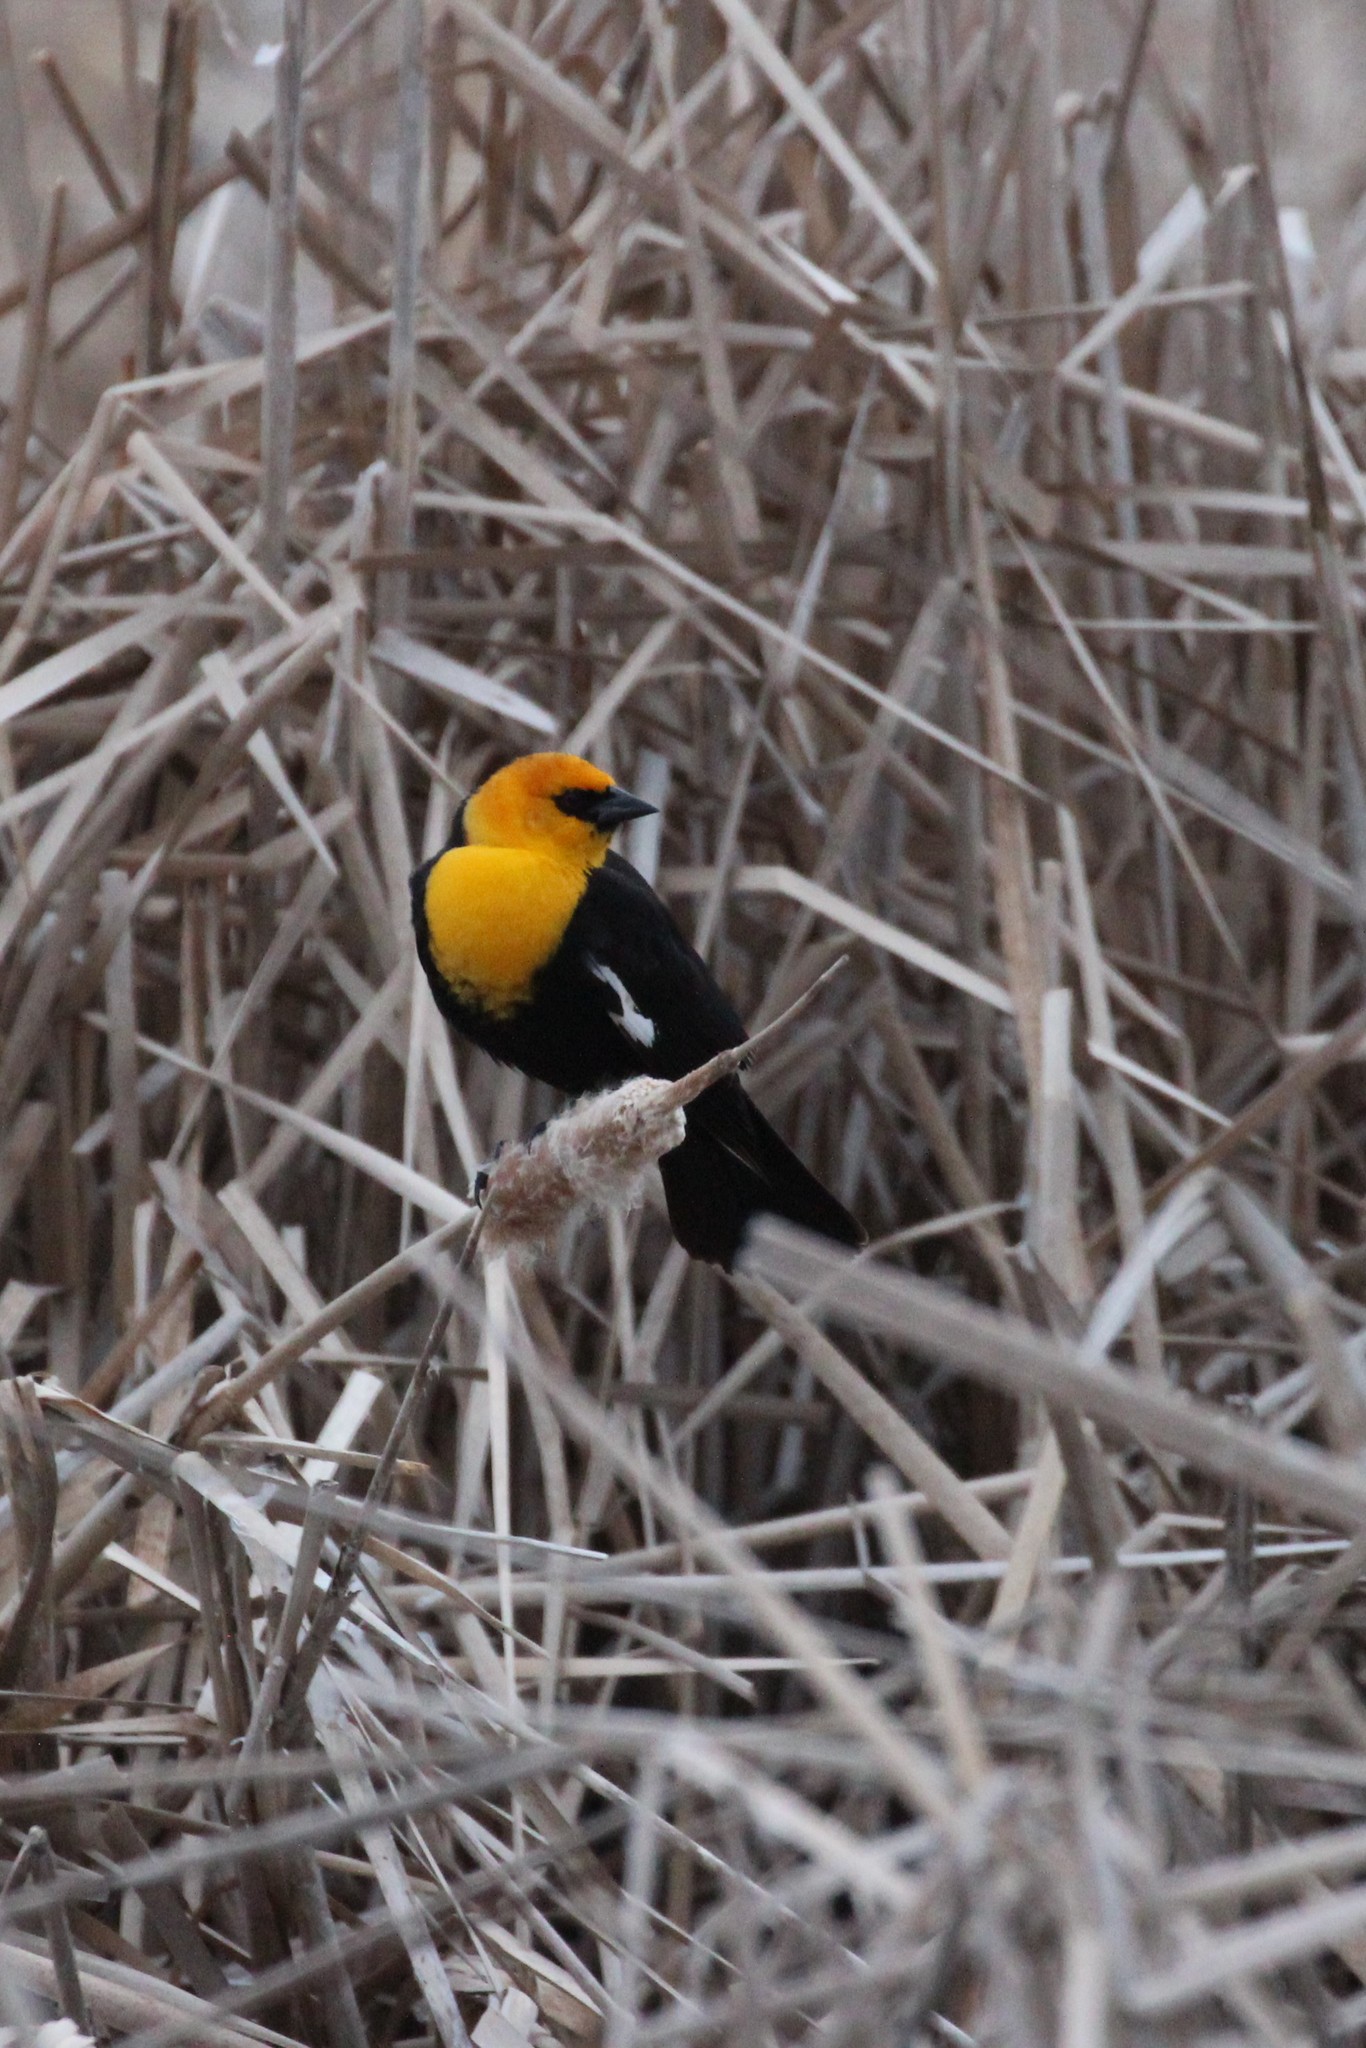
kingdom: Animalia
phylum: Chordata
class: Aves
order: Passeriformes
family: Icteridae
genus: Xanthocephalus
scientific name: Xanthocephalus xanthocephalus
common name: Yellow-headed blackbird
